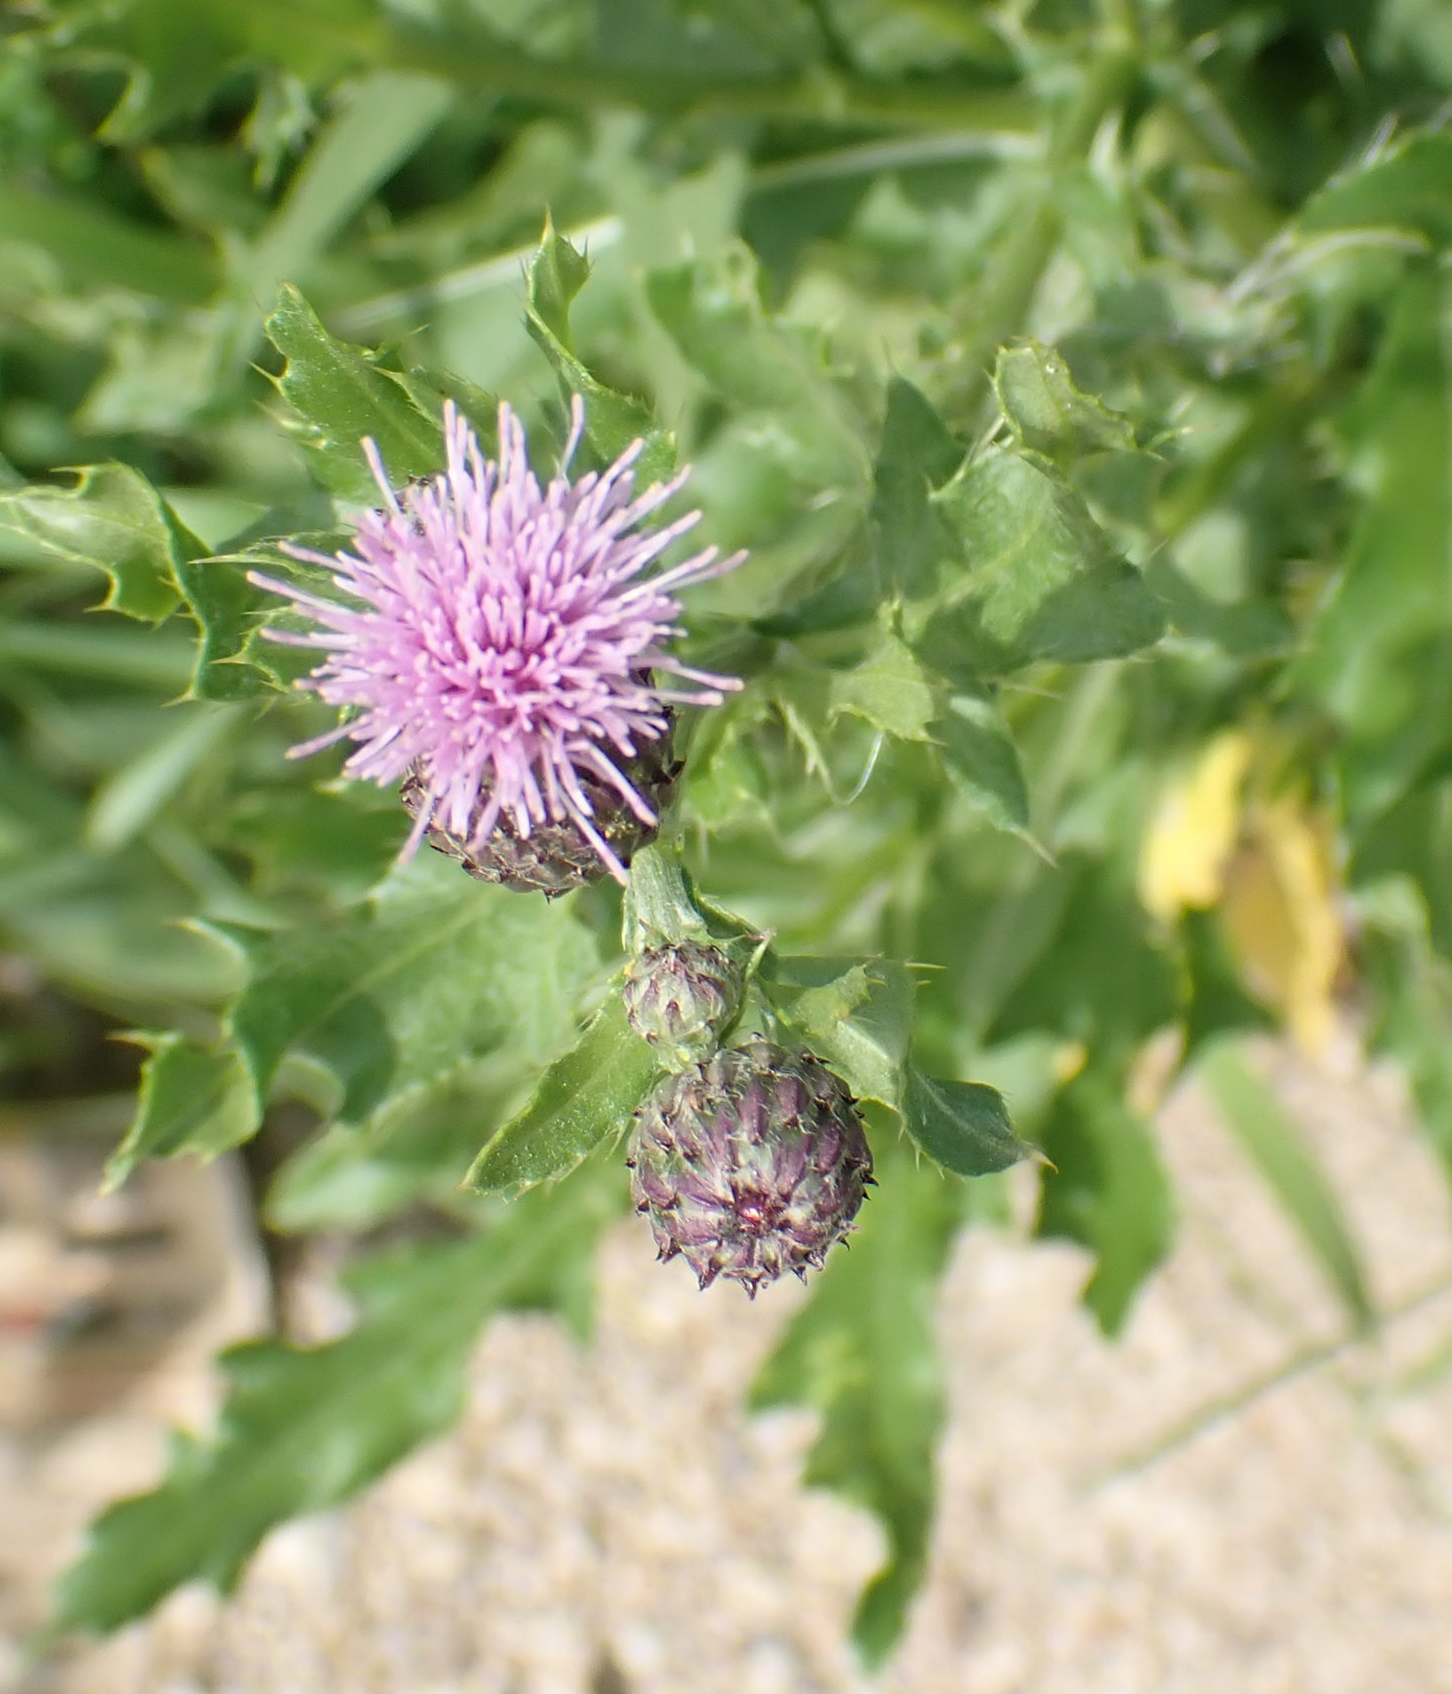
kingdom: Plantae
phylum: Tracheophyta
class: Magnoliopsida
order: Asterales
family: Asteraceae
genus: Cirsium
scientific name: Cirsium arvense
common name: Creeping thistle
